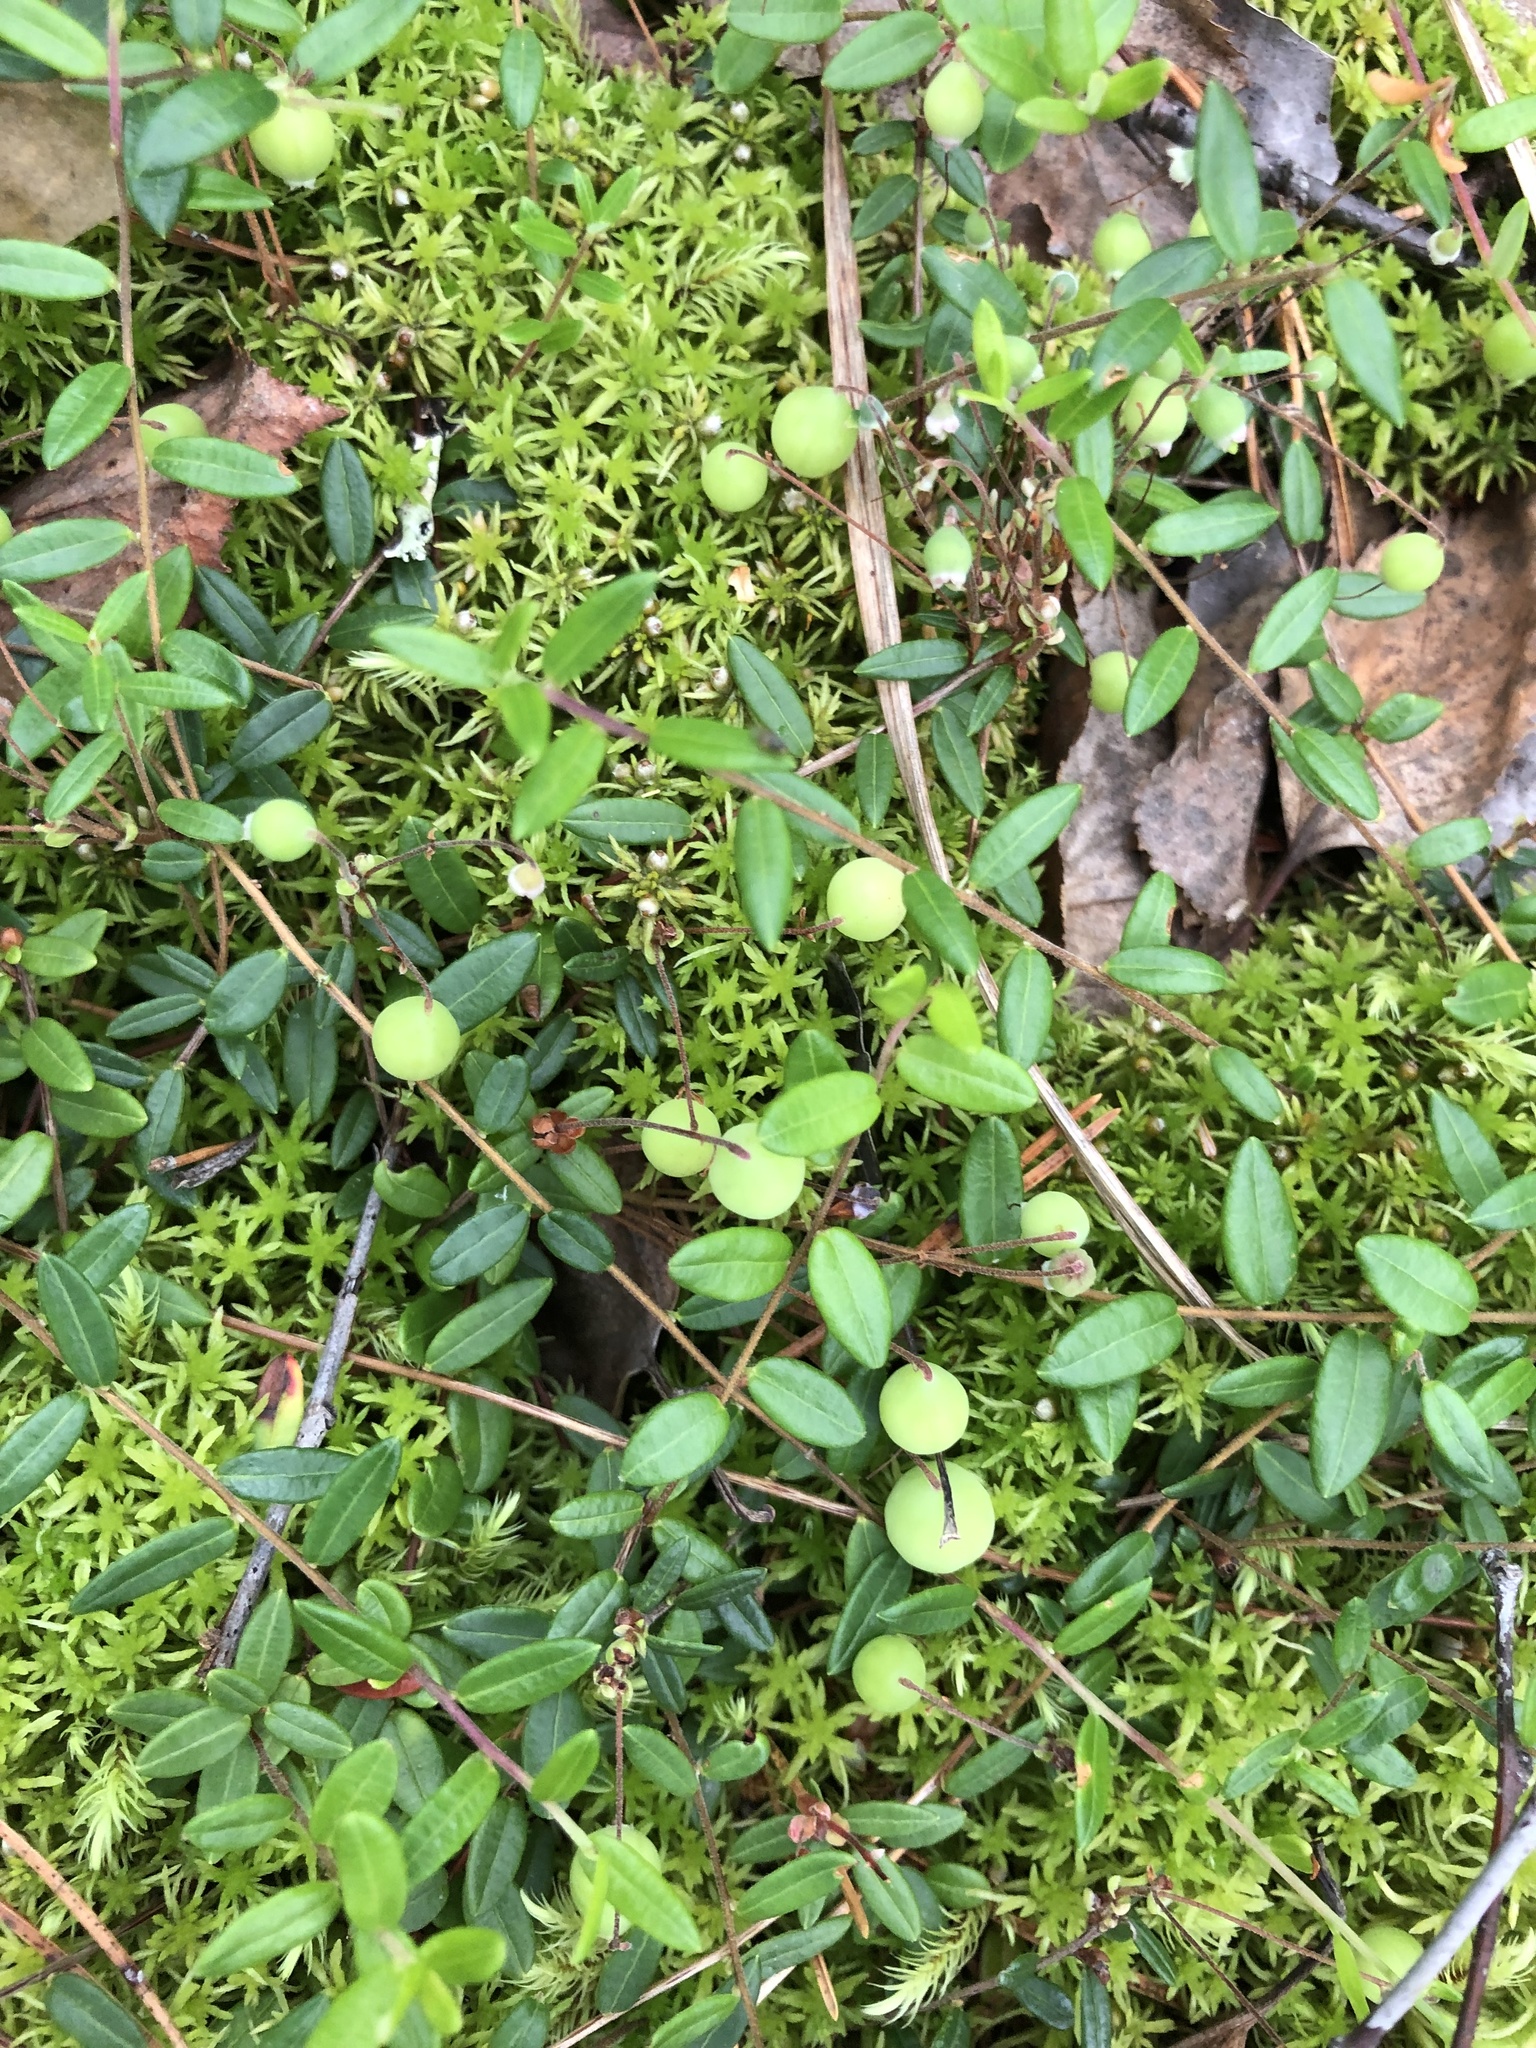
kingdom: Plantae
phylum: Tracheophyta
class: Magnoliopsida
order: Ericales
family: Ericaceae
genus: Vaccinium
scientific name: Vaccinium oxycoccos
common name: Cranberry
